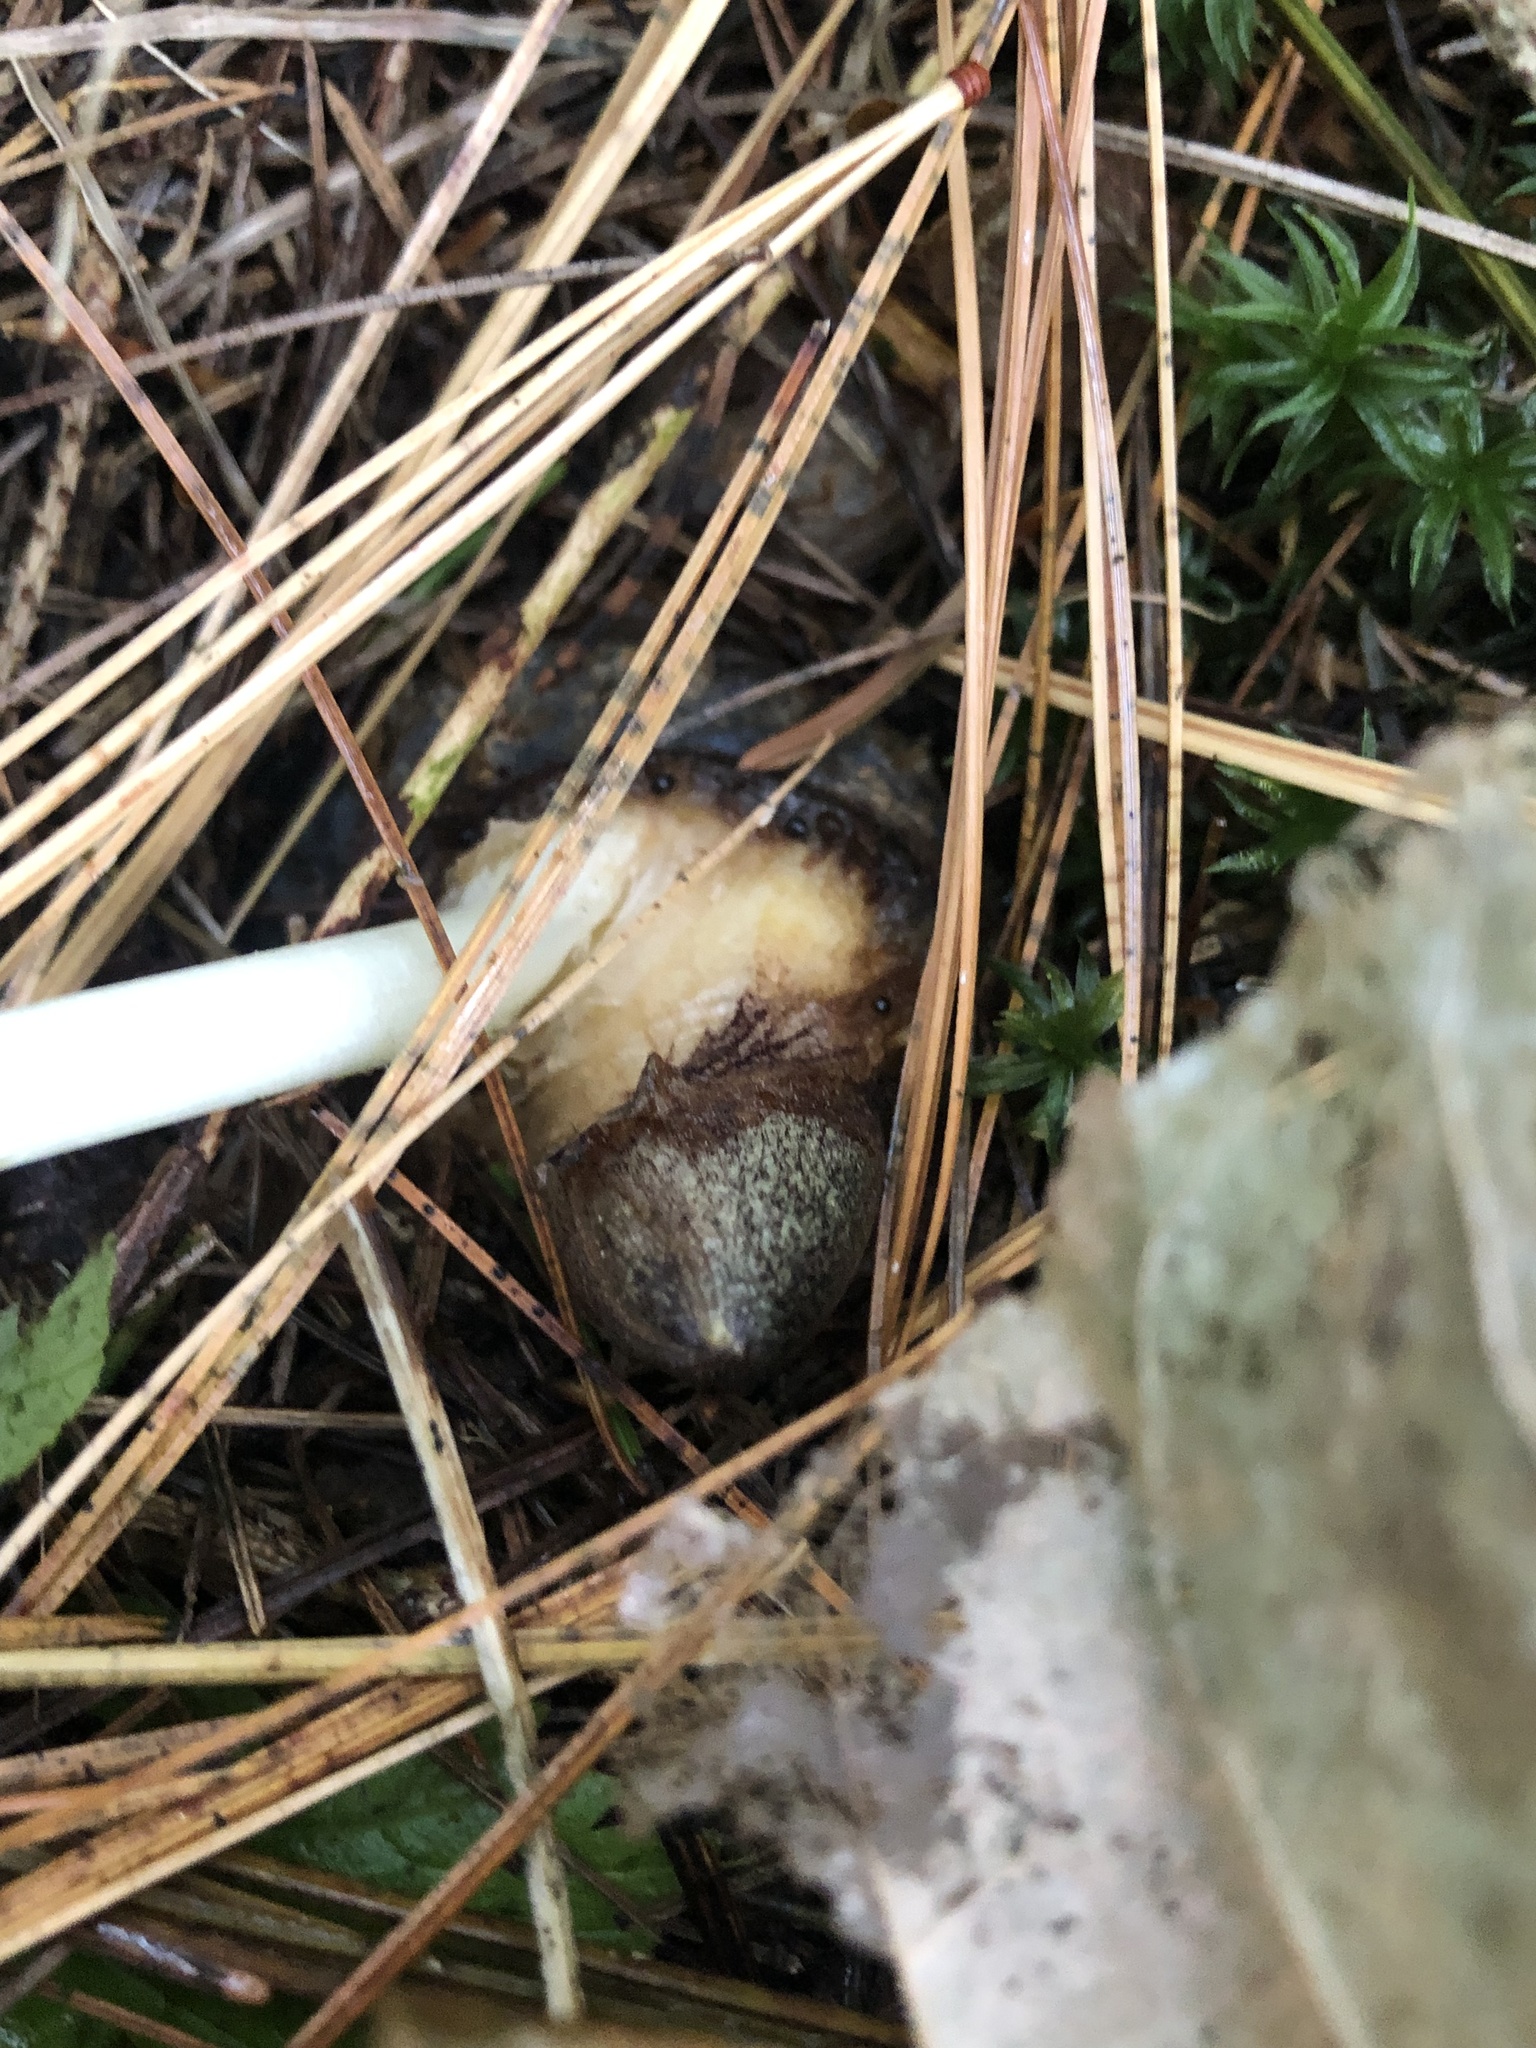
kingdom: Plantae
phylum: Tracheophyta
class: Liliopsida
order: Alismatales
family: Araceae
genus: Arisaema
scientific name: Arisaema triphyllum
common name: Jack-in-the-pulpit
